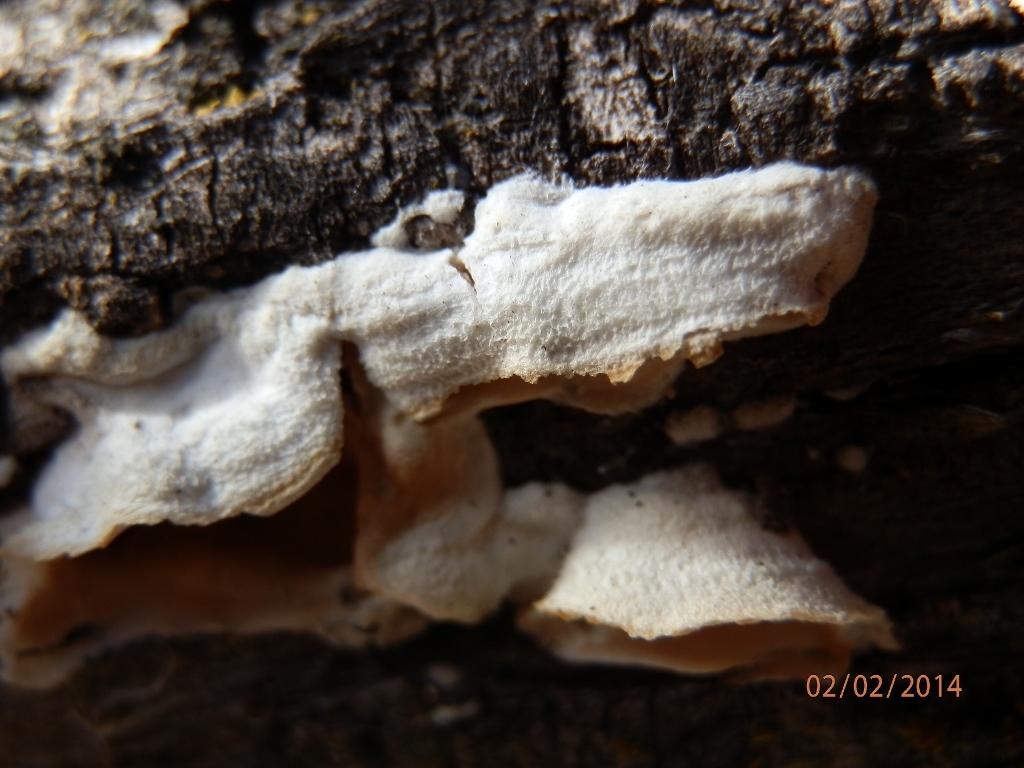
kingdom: Fungi
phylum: Basidiomycota
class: Agaricomycetes
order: Polyporales
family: Irpicaceae
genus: Byssomerulius
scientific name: Byssomerulius corium
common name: Netted crust
